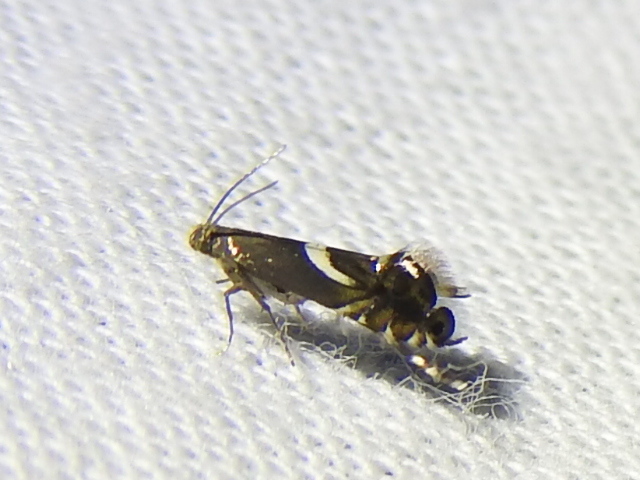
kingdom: Animalia
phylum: Arthropoda
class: Insecta
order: Lepidoptera
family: Glyphipterigidae
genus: Glyphipterix
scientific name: Glyphipterix Diploschizia impigritella
